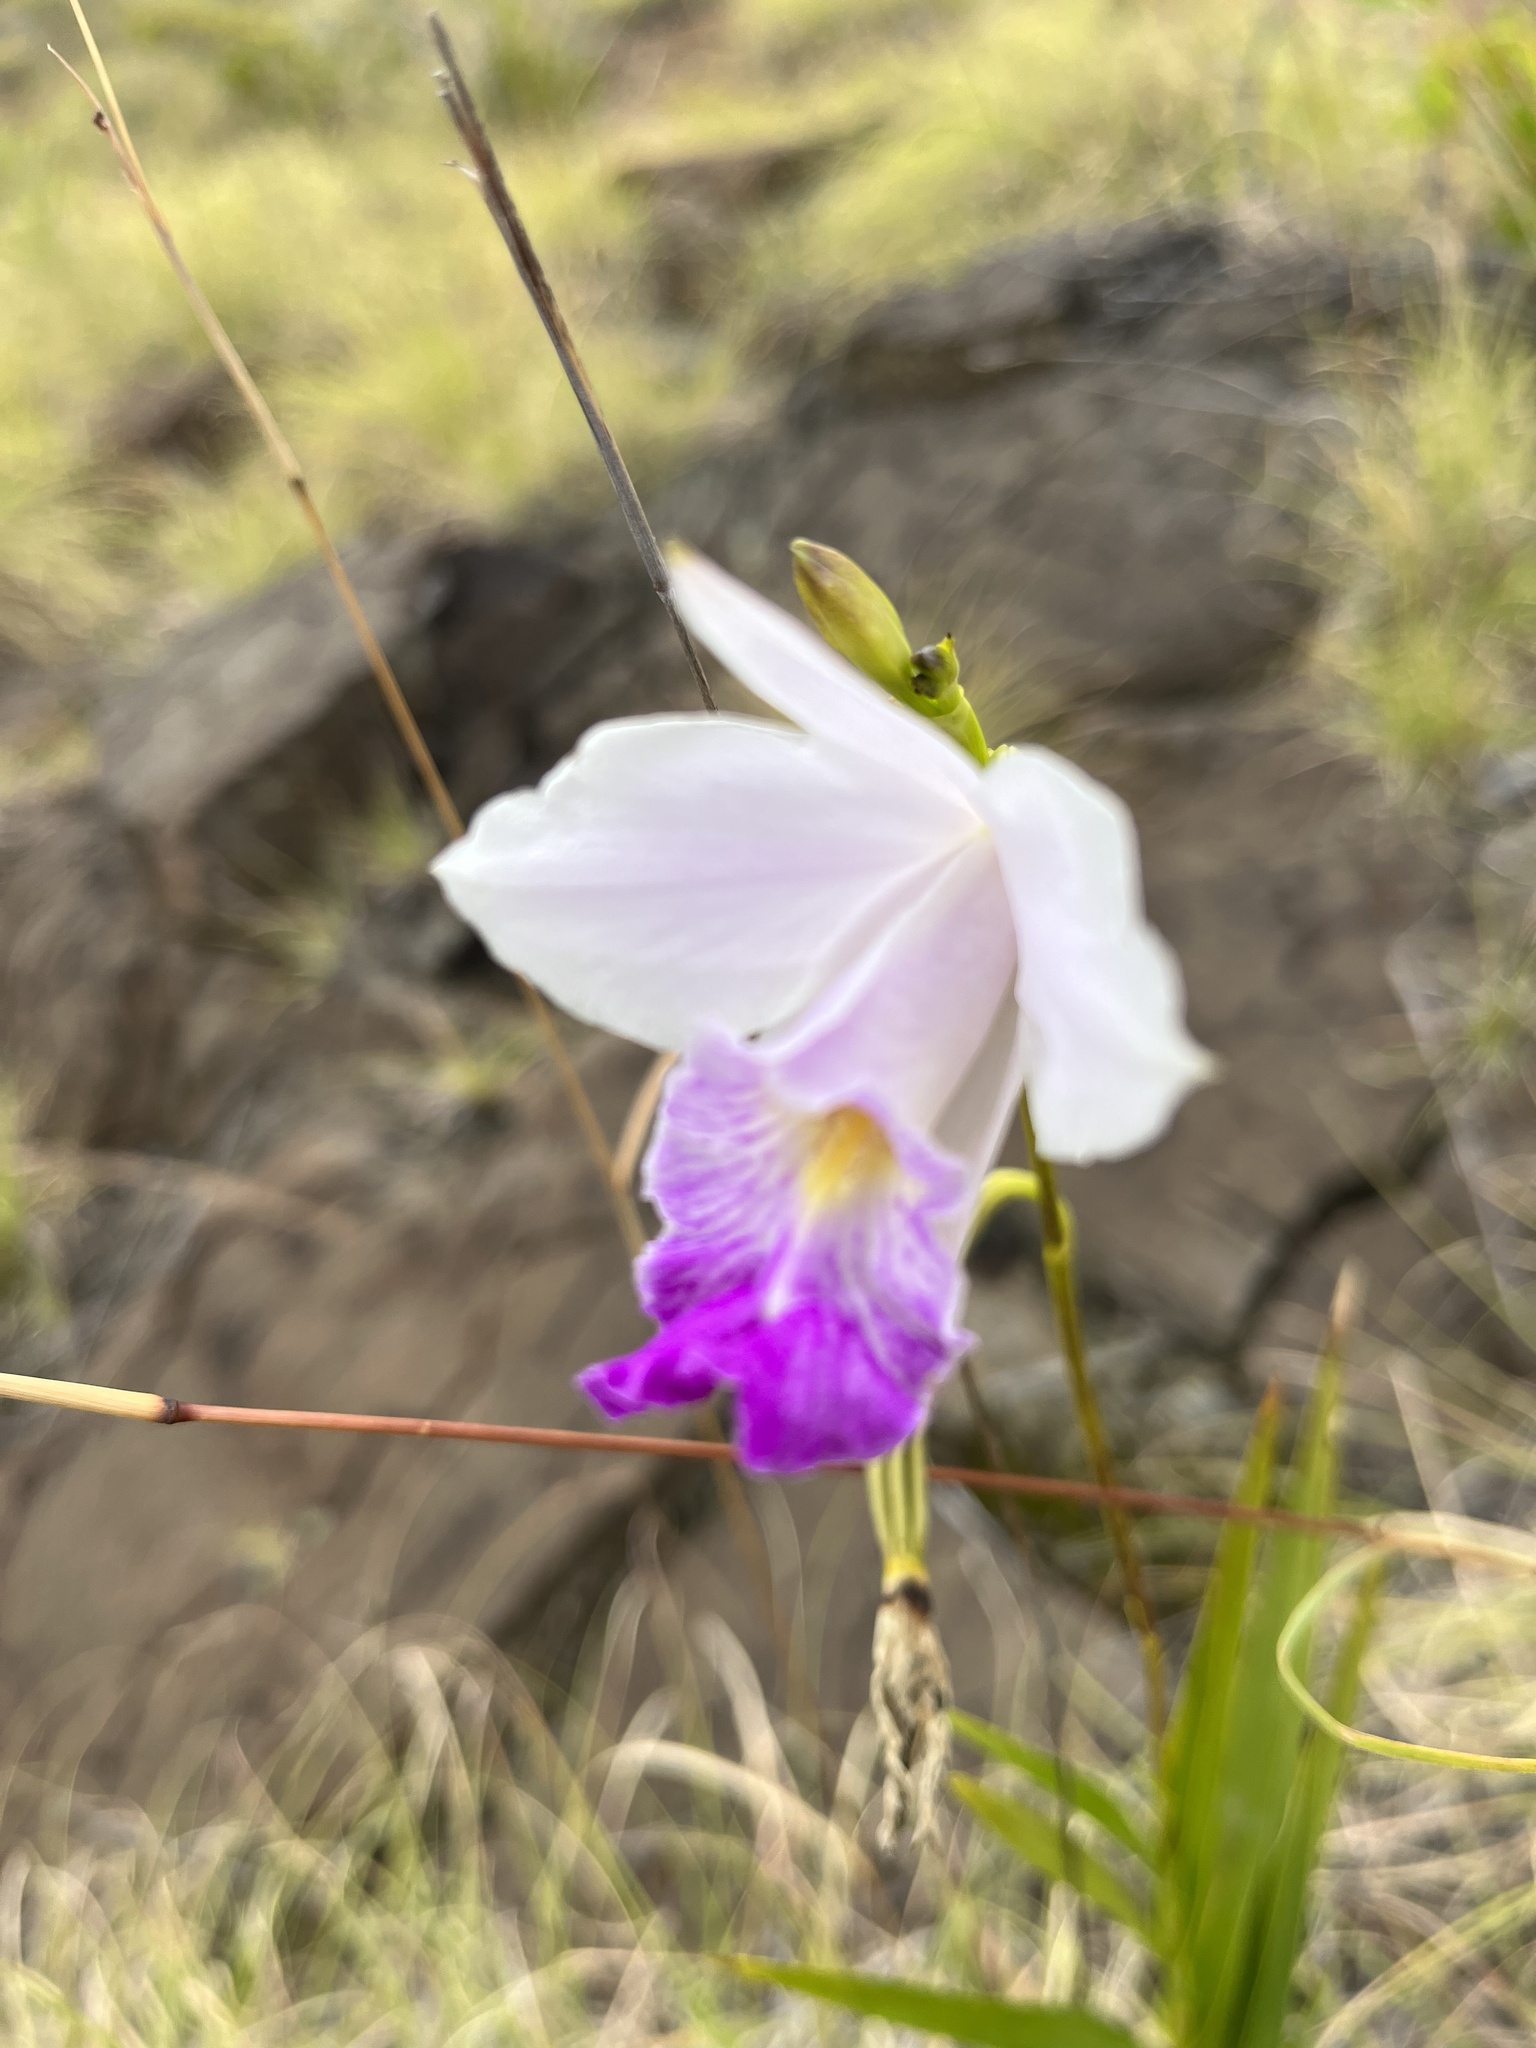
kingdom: Plantae
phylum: Tracheophyta
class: Liliopsida
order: Asparagales
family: Orchidaceae
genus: Arundina
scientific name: Arundina graminifolia
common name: Bamboo orchid
